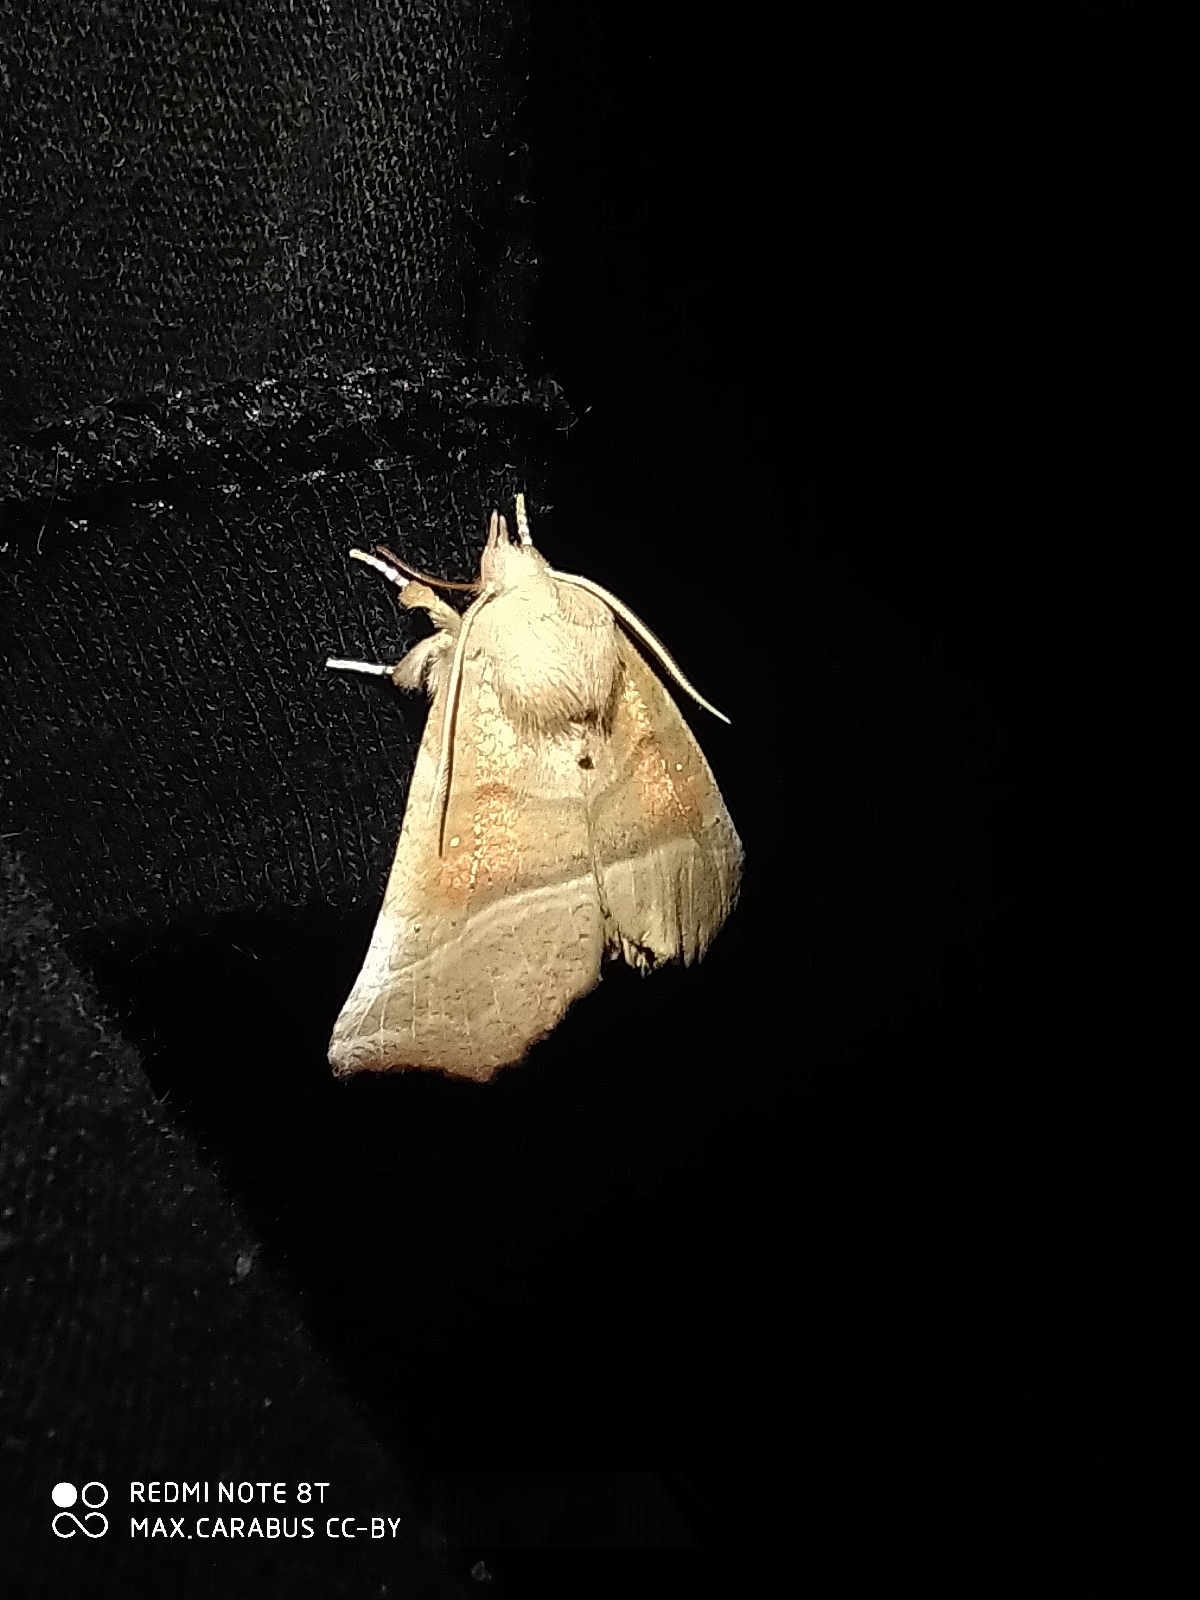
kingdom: Animalia
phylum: Arthropoda
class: Insecta
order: Lepidoptera
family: Erebidae
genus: Scoliopteryx
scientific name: Scoliopteryx libatrix
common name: Herald
